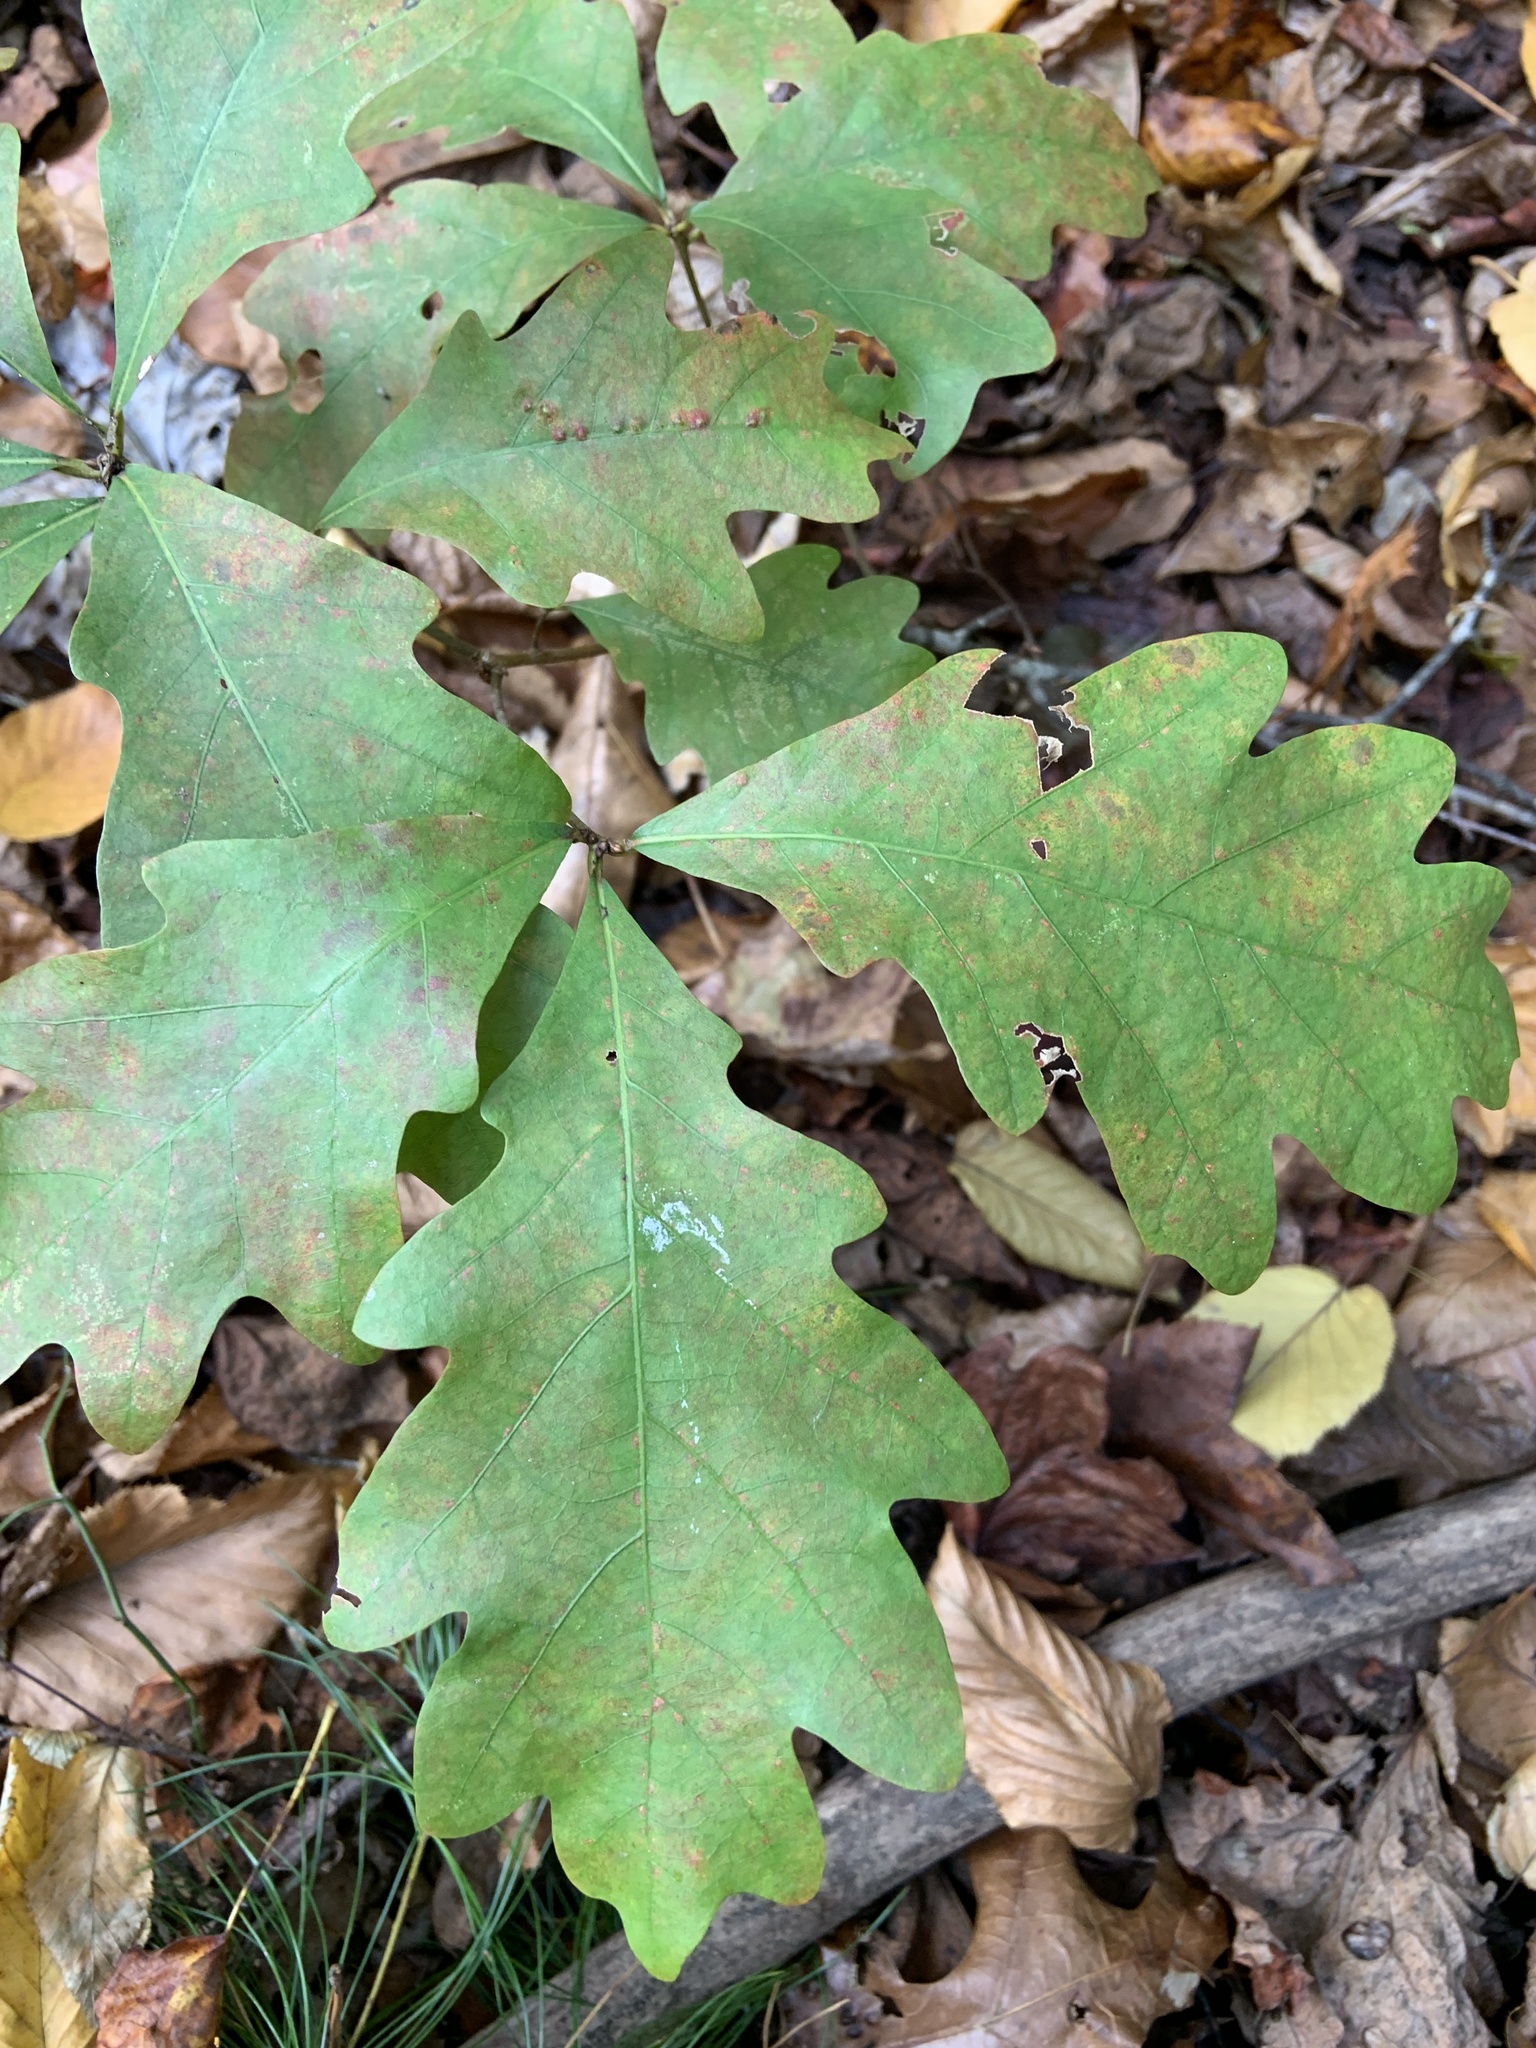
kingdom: Plantae
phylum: Tracheophyta
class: Magnoliopsida
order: Fagales
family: Fagaceae
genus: Quercus
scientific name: Quercus alba
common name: White oak
